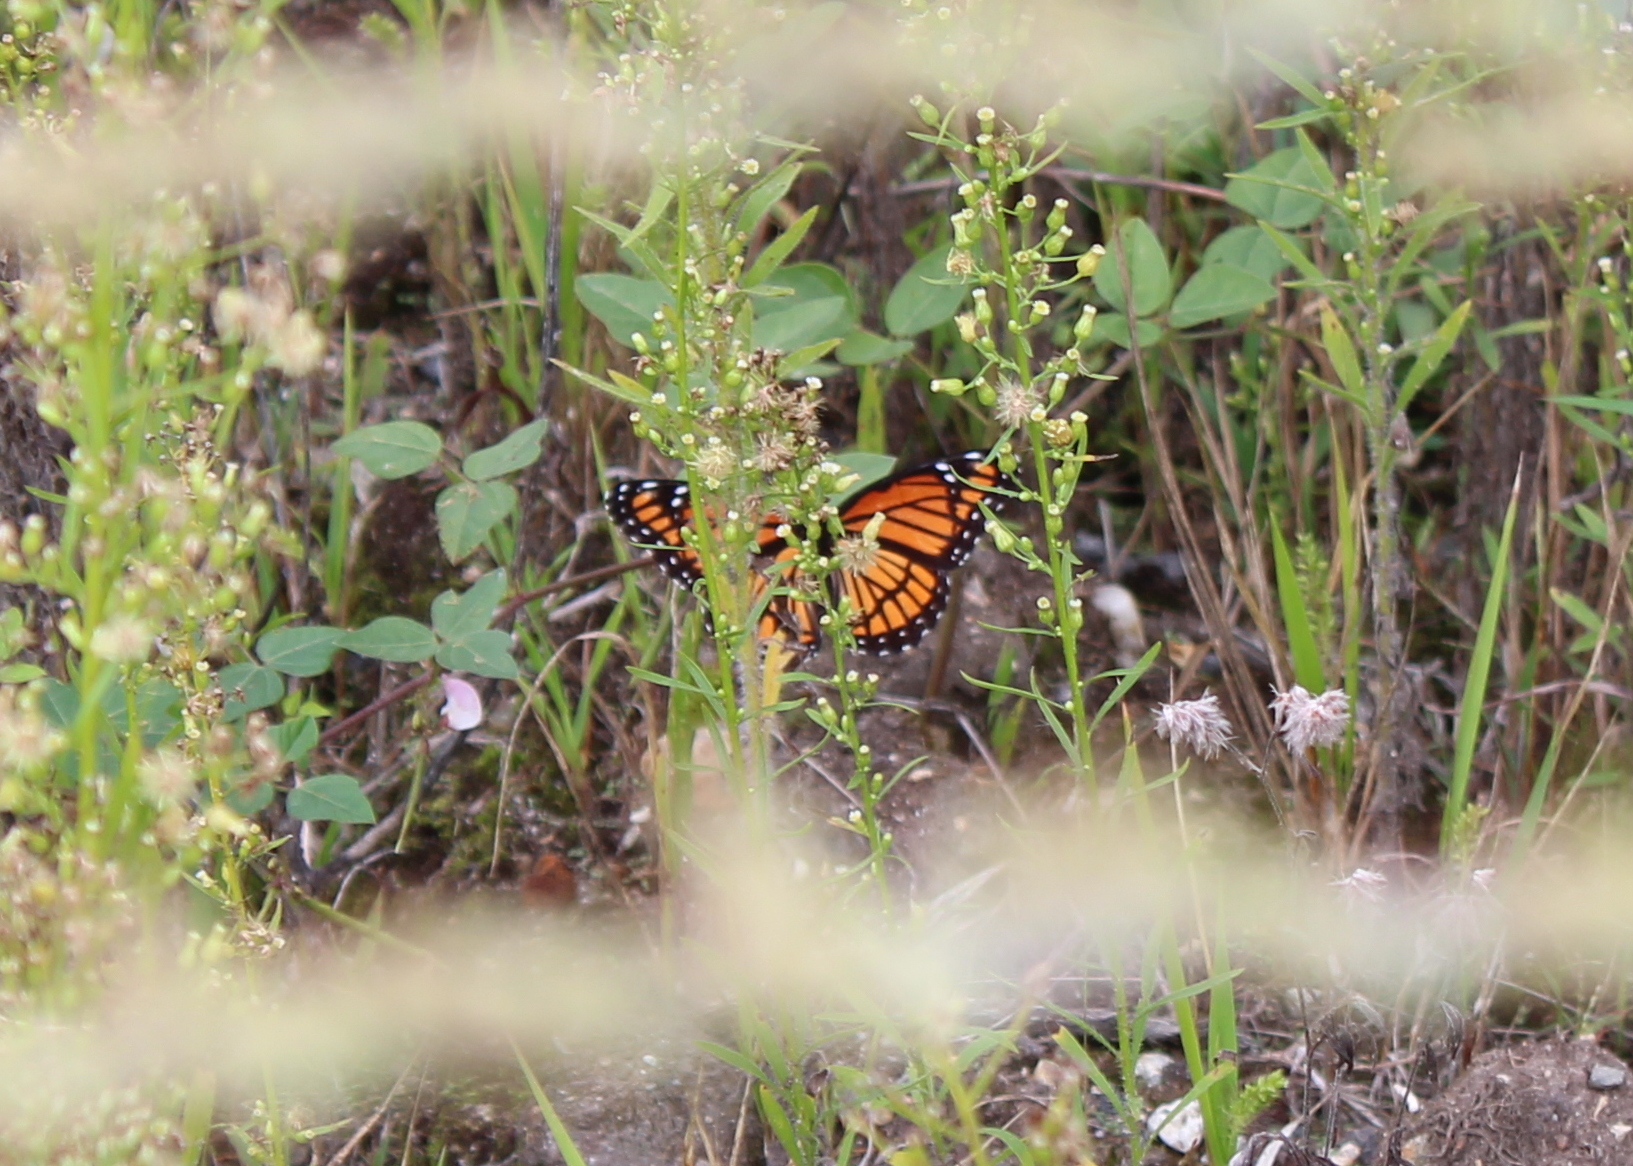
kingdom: Animalia
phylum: Arthropoda
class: Insecta
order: Lepidoptera
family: Nymphalidae
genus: Limenitis
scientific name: Limenitis archippus
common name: Viceroy
